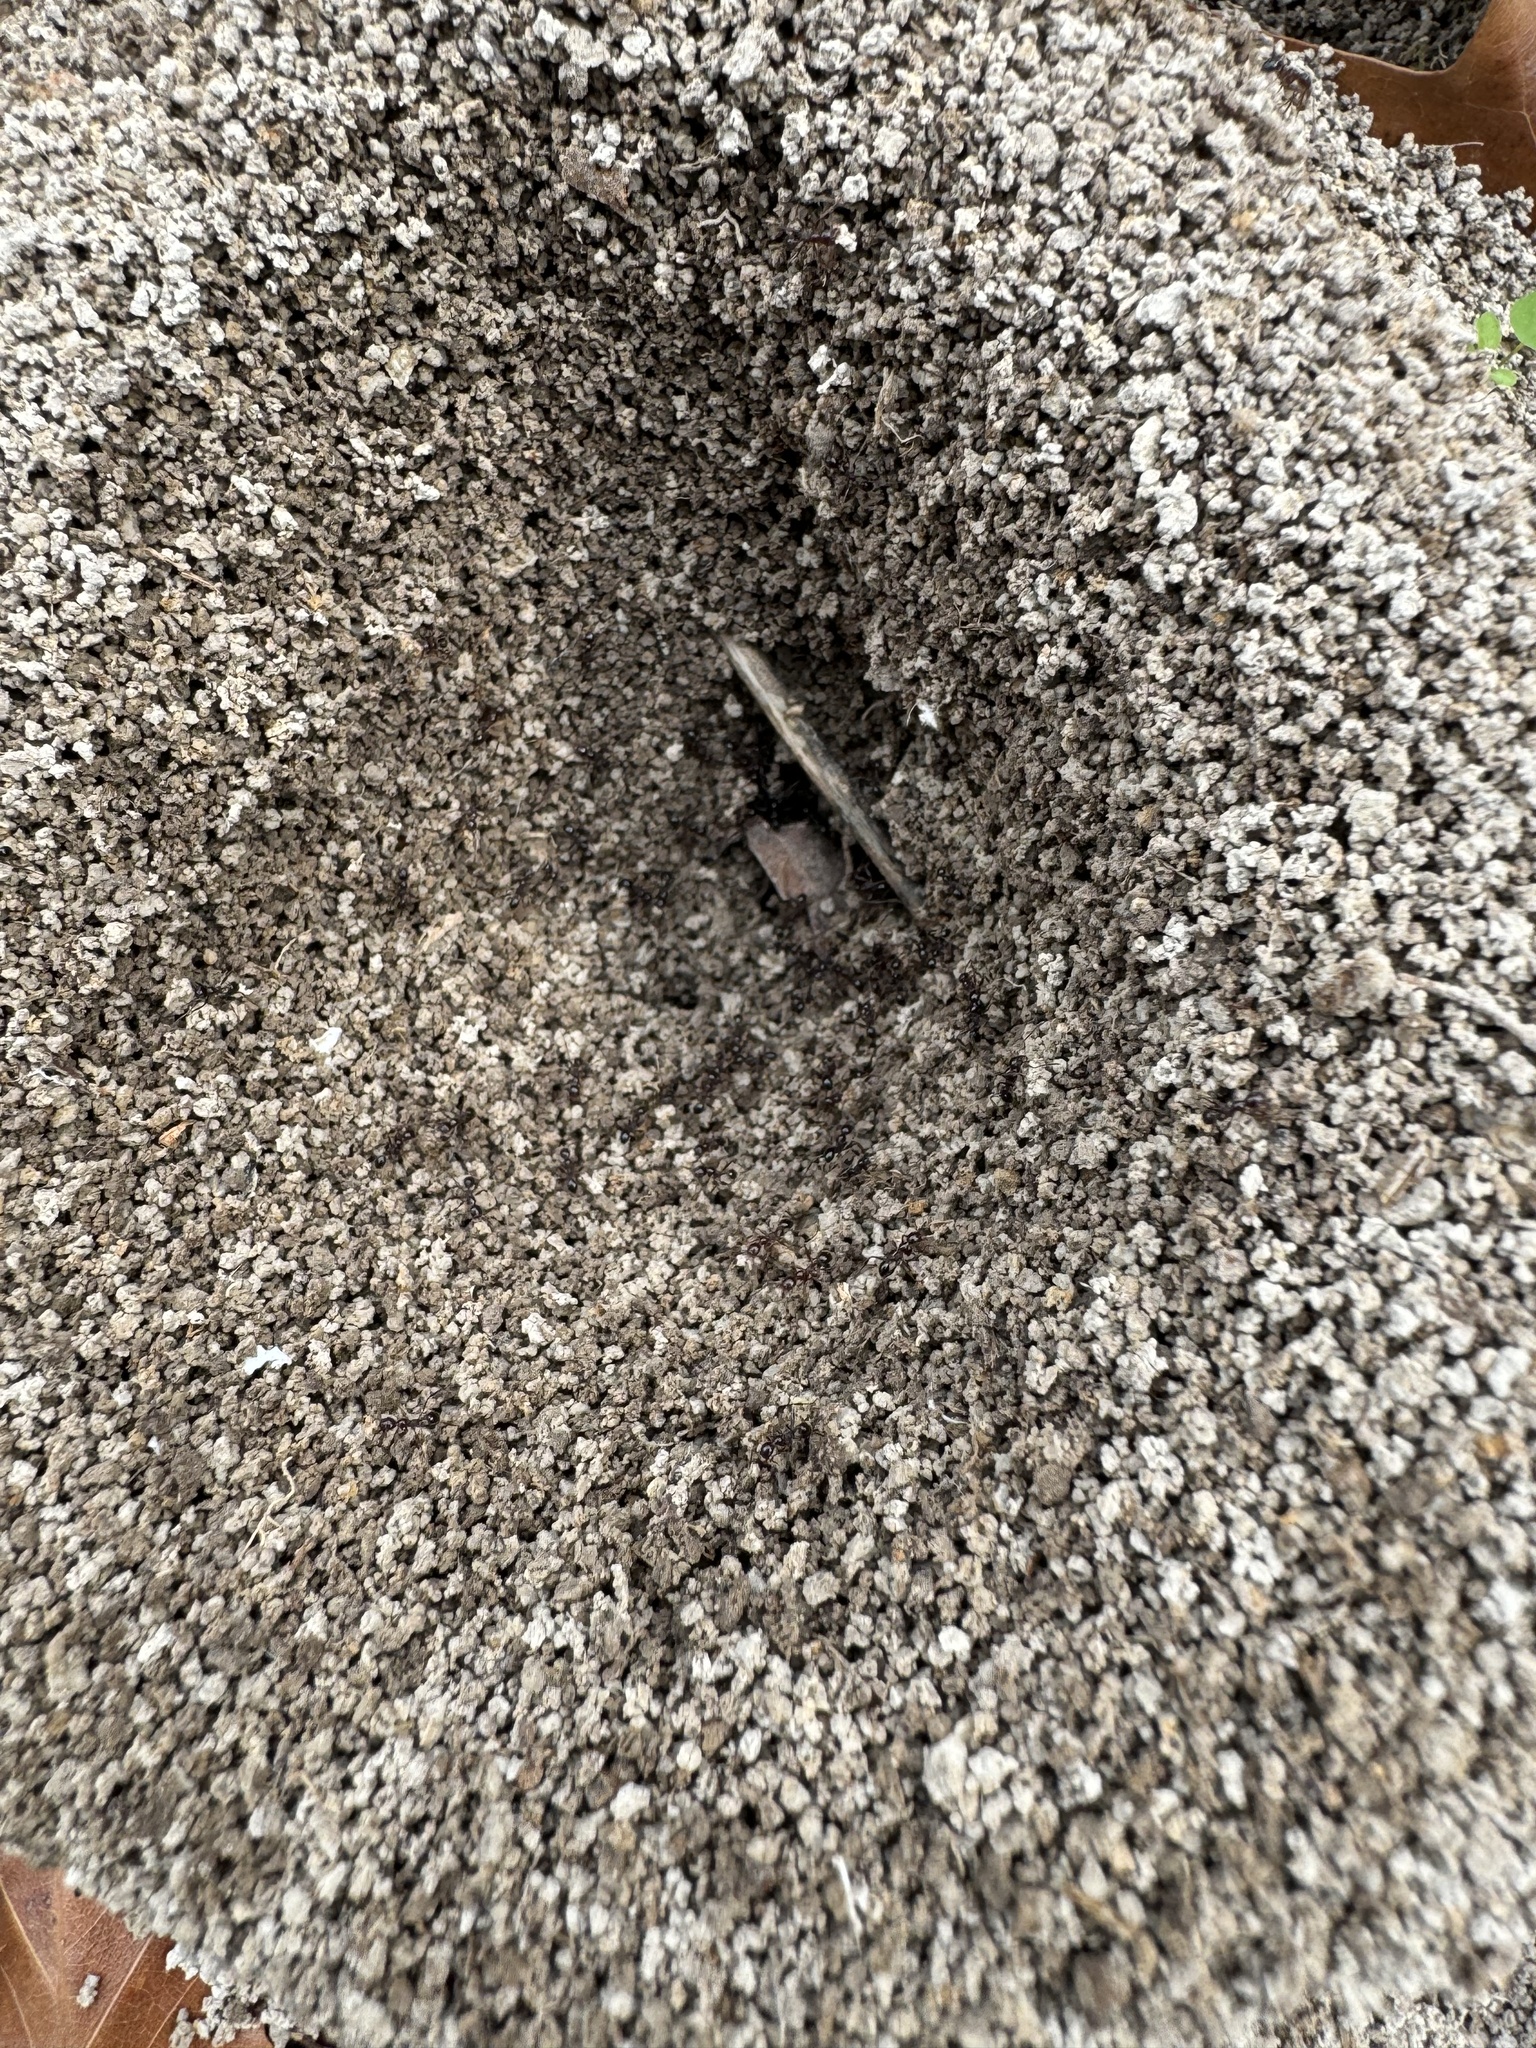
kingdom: Animalia
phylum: Arthropoda
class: Insecta
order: Hymenoptera
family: Formicidae
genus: Pheidole
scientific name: Pheidole obscurithorax
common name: Obscure big-headed ant
